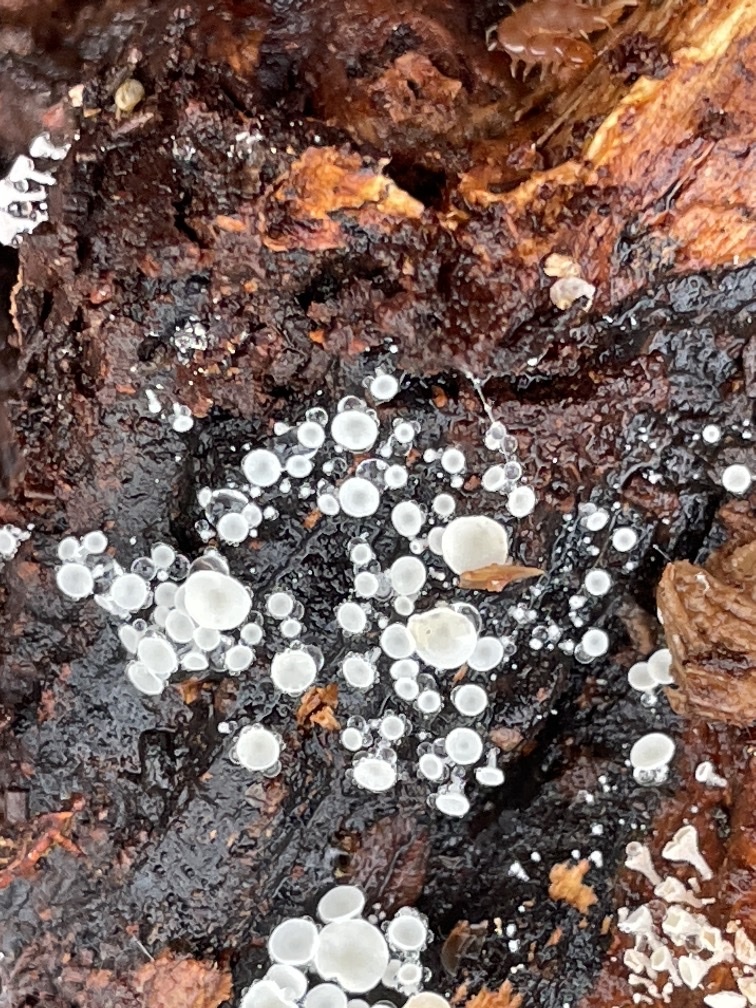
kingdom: Fungi
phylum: Ascomycota
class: Leotiomycetes
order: Helotiales
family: Lachnaceae
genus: Lachnum
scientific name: Lachnum virgineum
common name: Snowy disco
